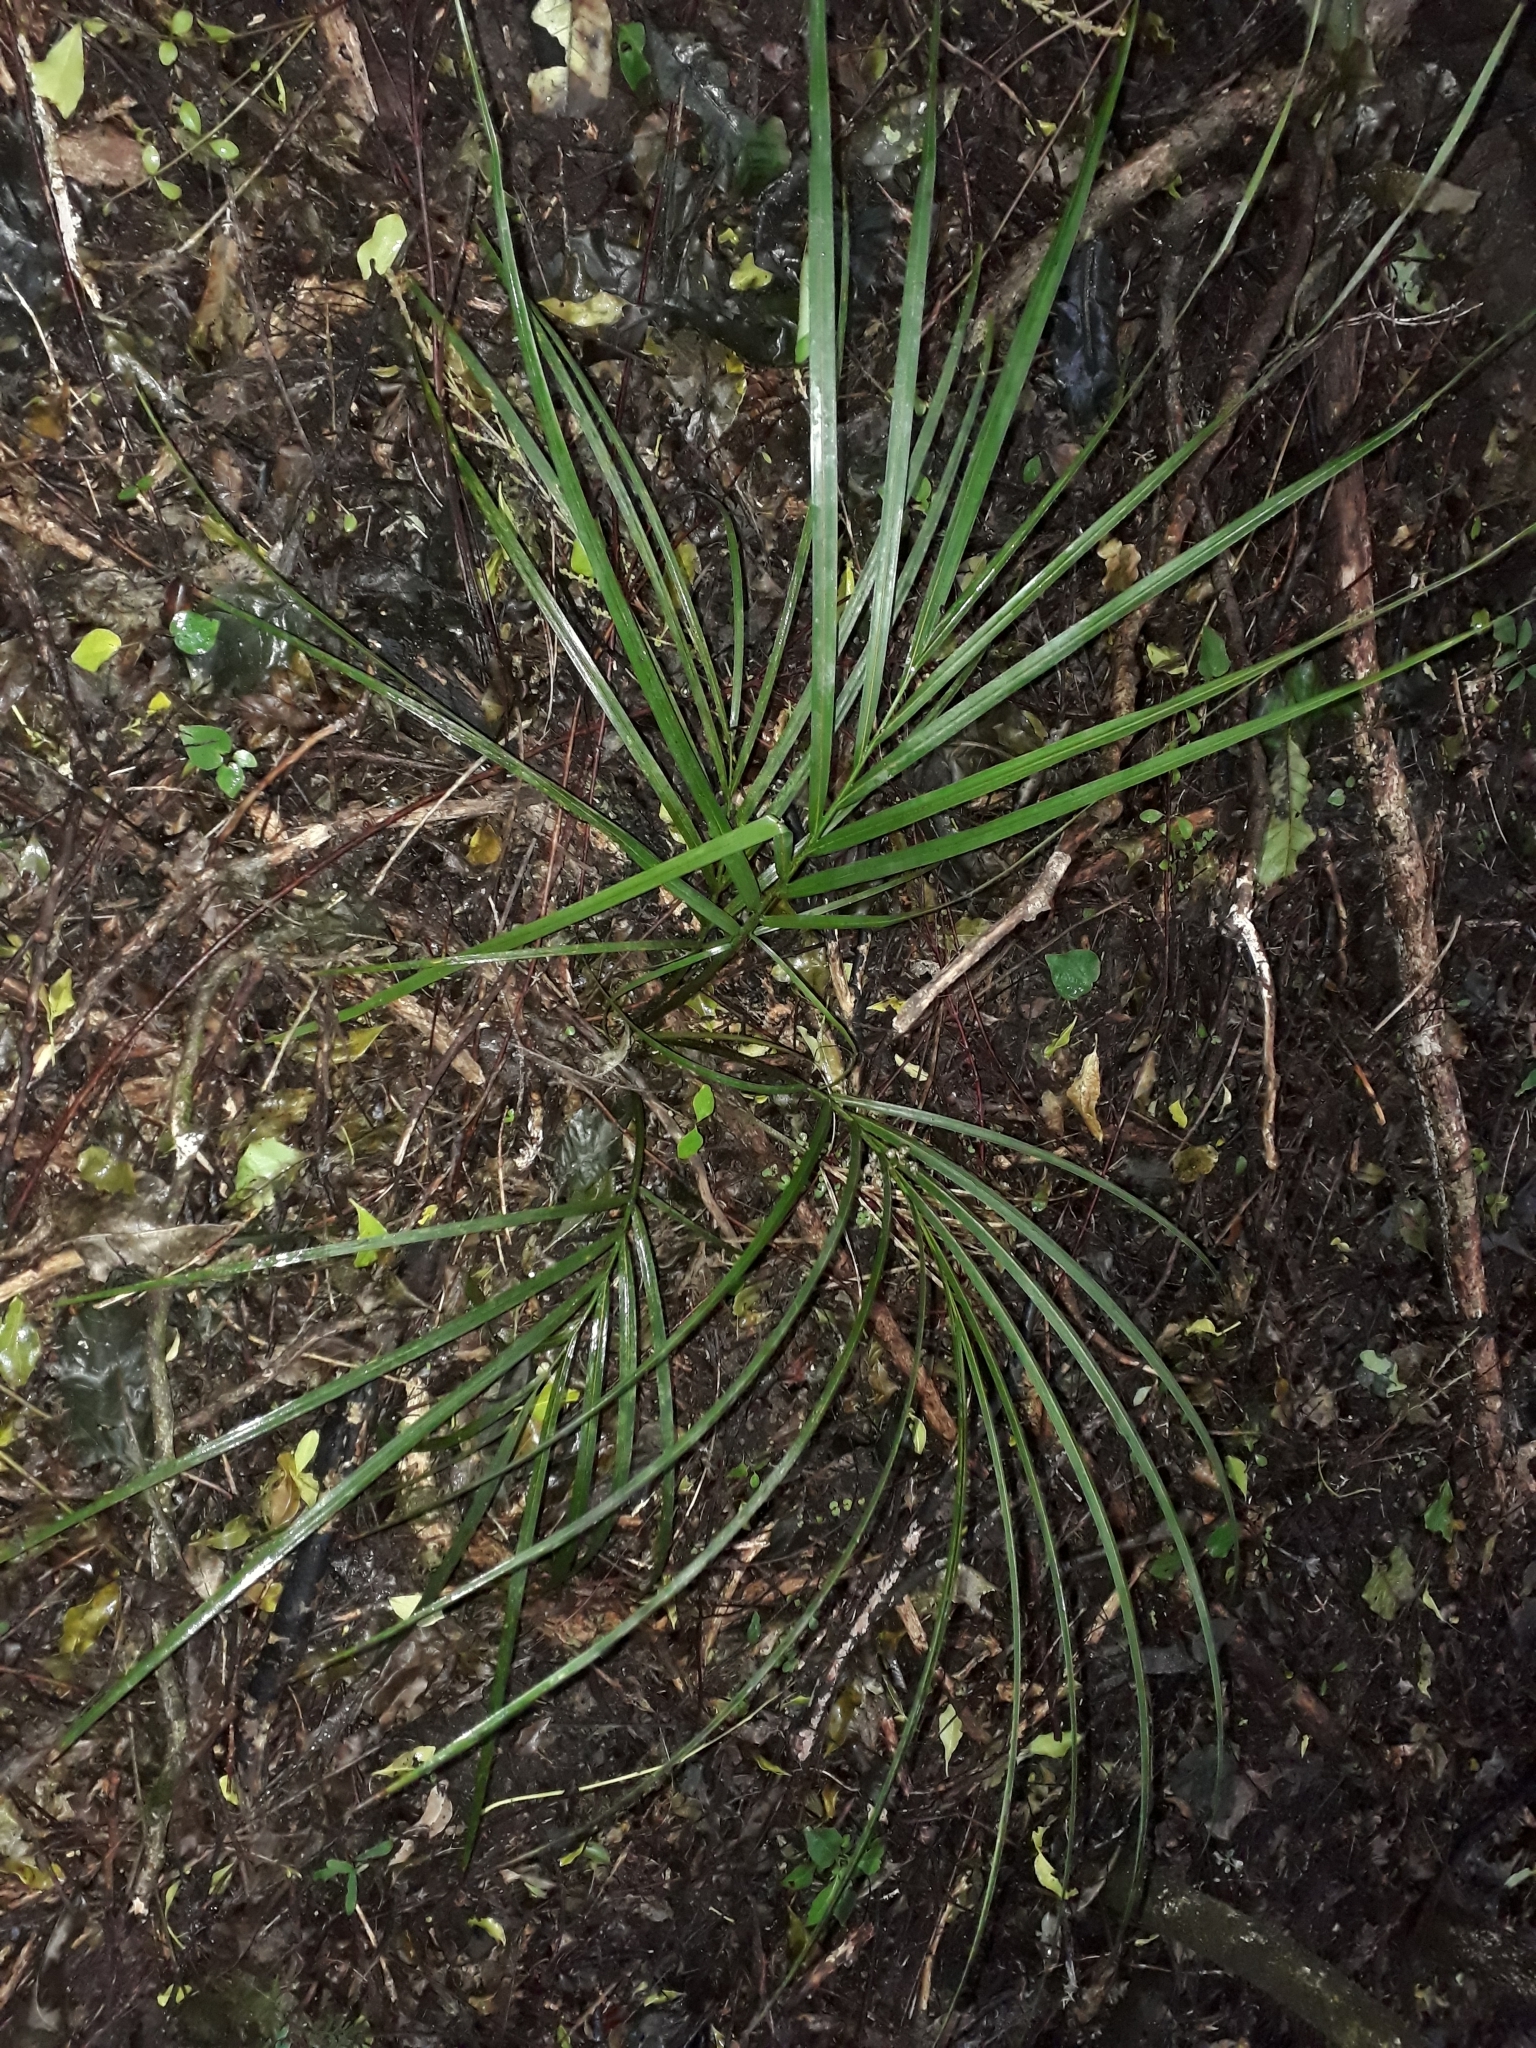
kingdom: Plantae
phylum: Tracheophyta
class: Liliopsida
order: Arecales
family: Arecaceae
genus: Rhopalostylis
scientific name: Rhopalostylis sapida
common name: Feather-duster palm
